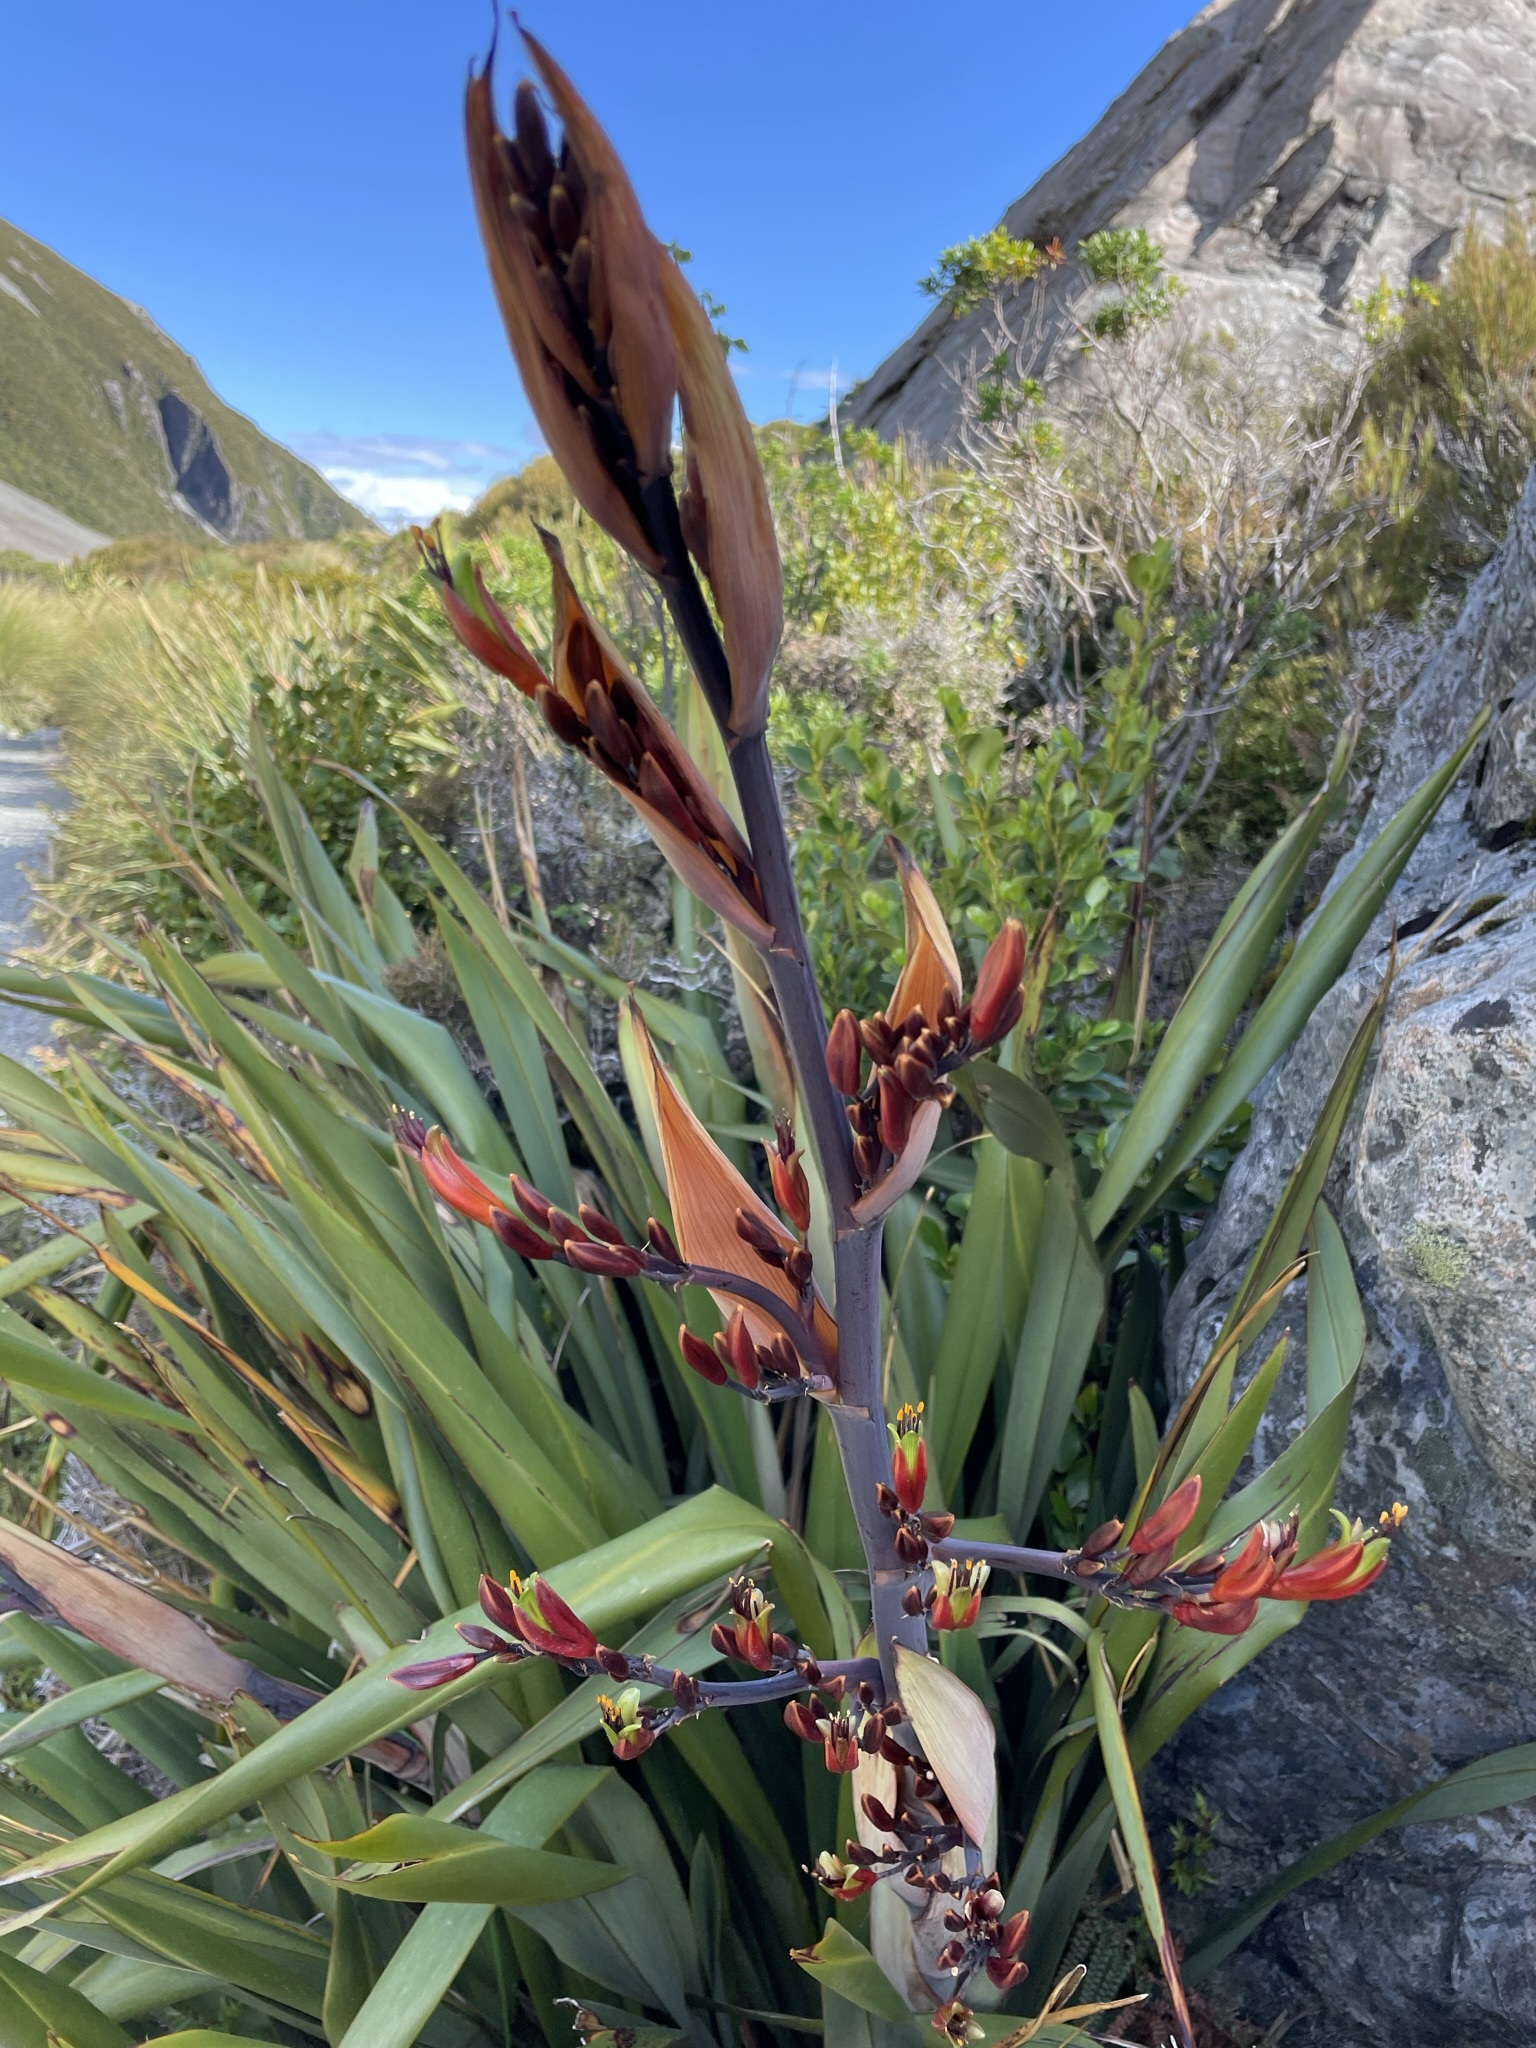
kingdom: Plantae
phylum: Tracheophyta
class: Liliopsida
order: Asparagales
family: Asphodelaceae
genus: Phormium
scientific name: Phormium colensoi
